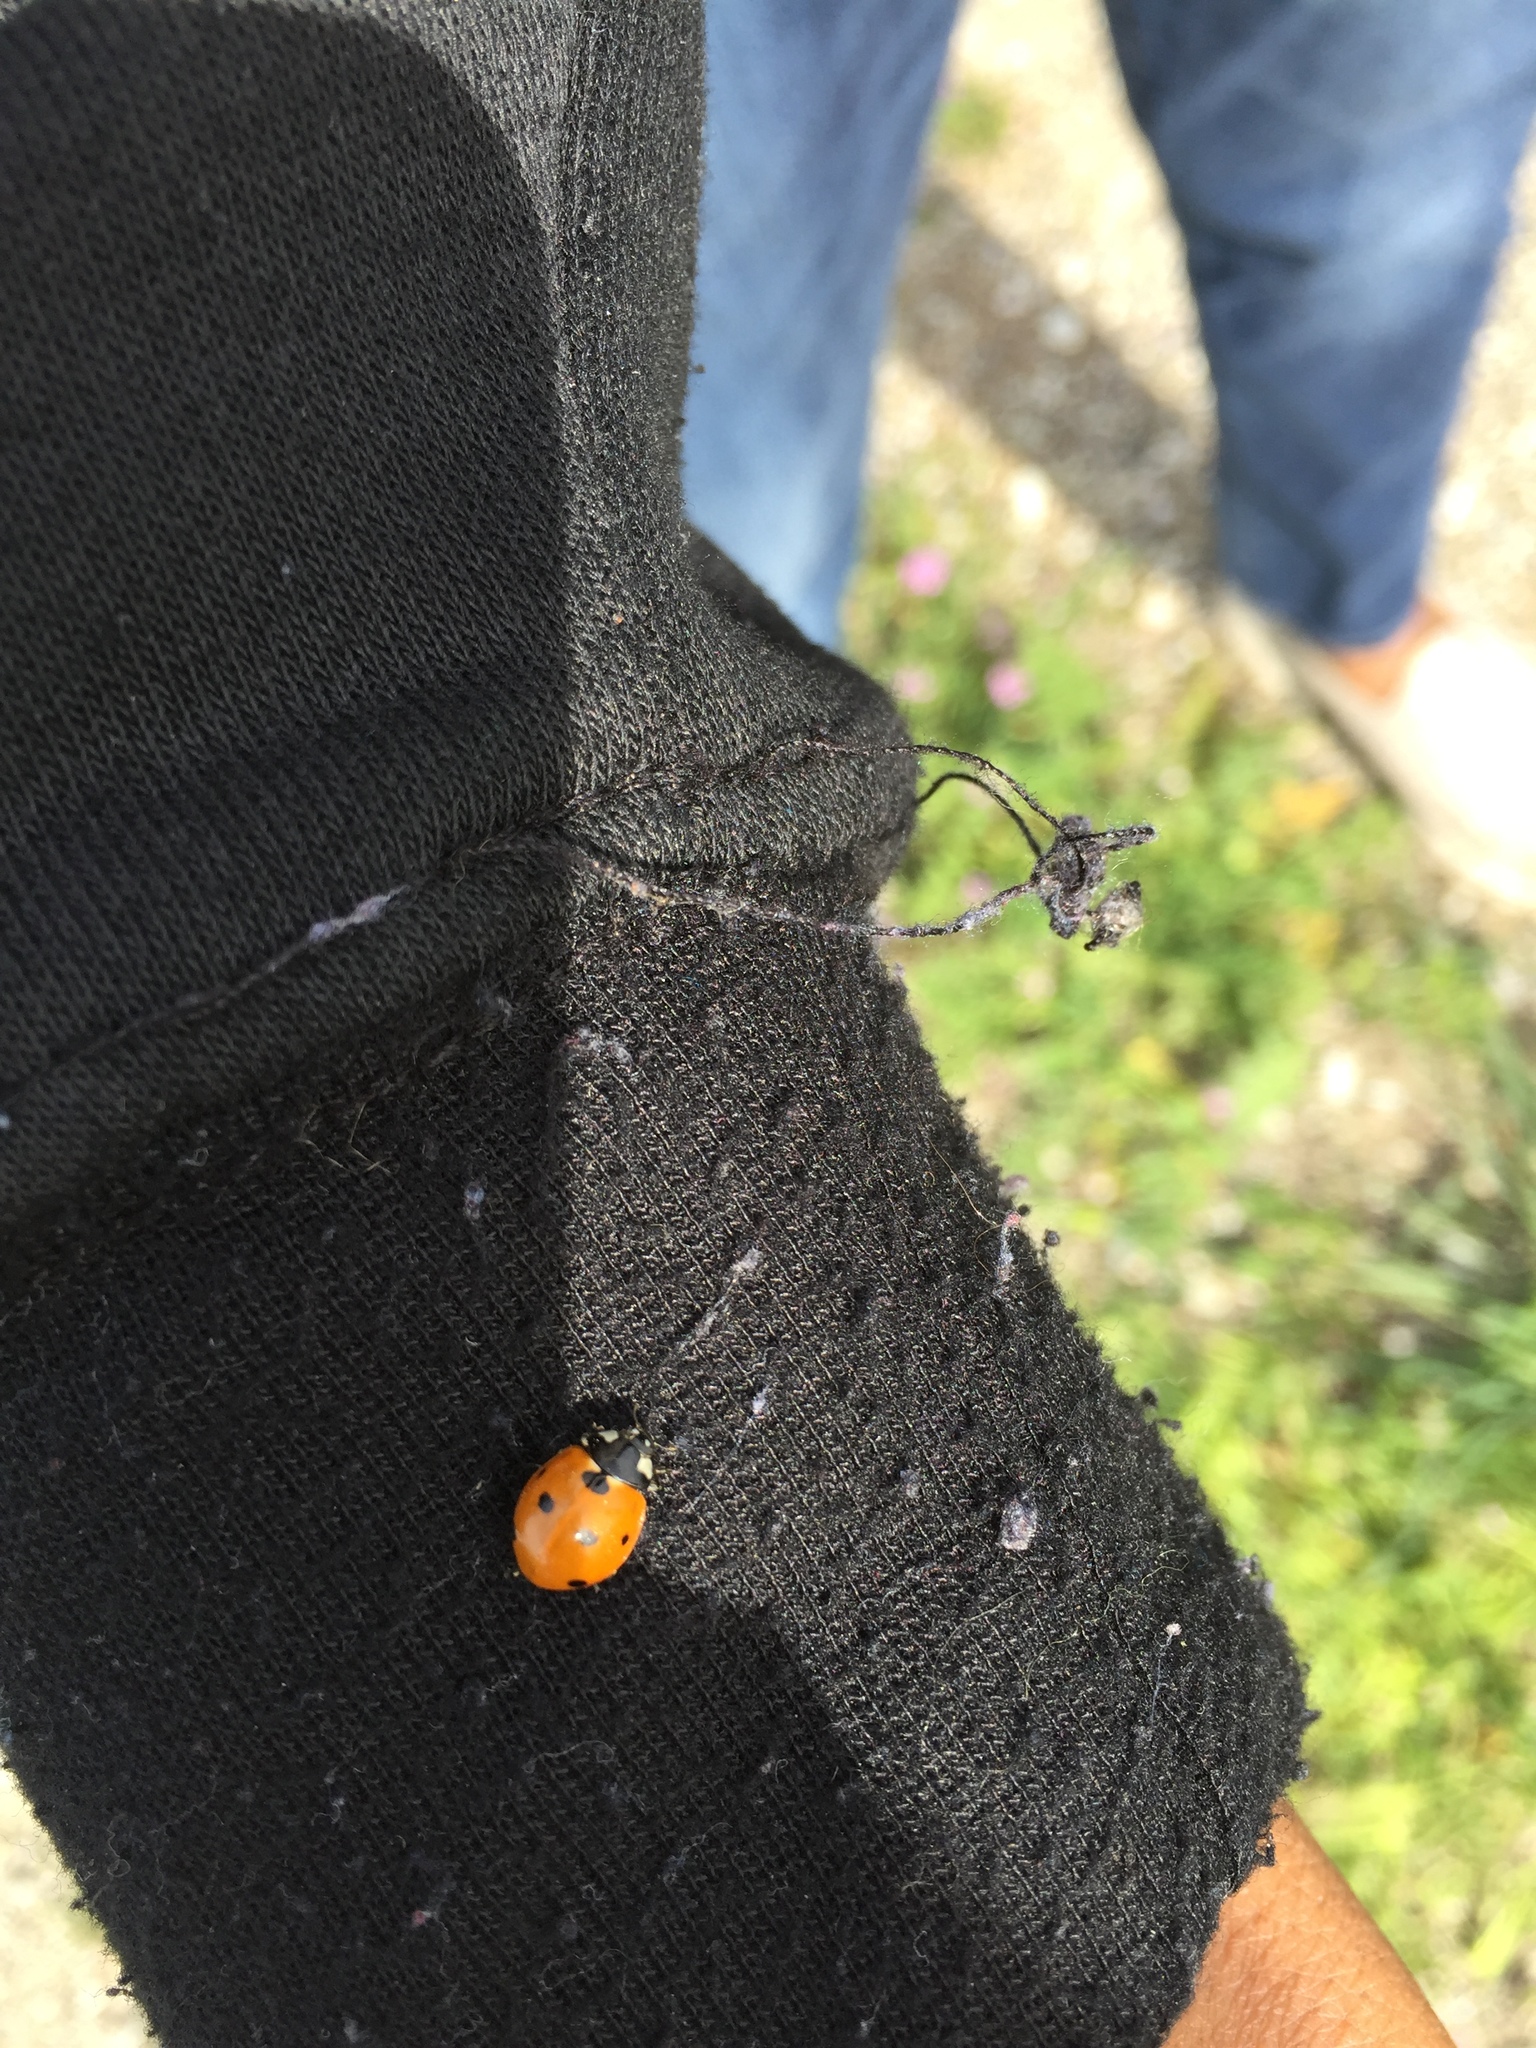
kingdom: Animalia
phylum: Arthropoda
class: Insecta
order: Coleoptera
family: Coccinellidae
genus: Coccinella
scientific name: Coccinella septempunctata
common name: Sevenspotted lady beetle
